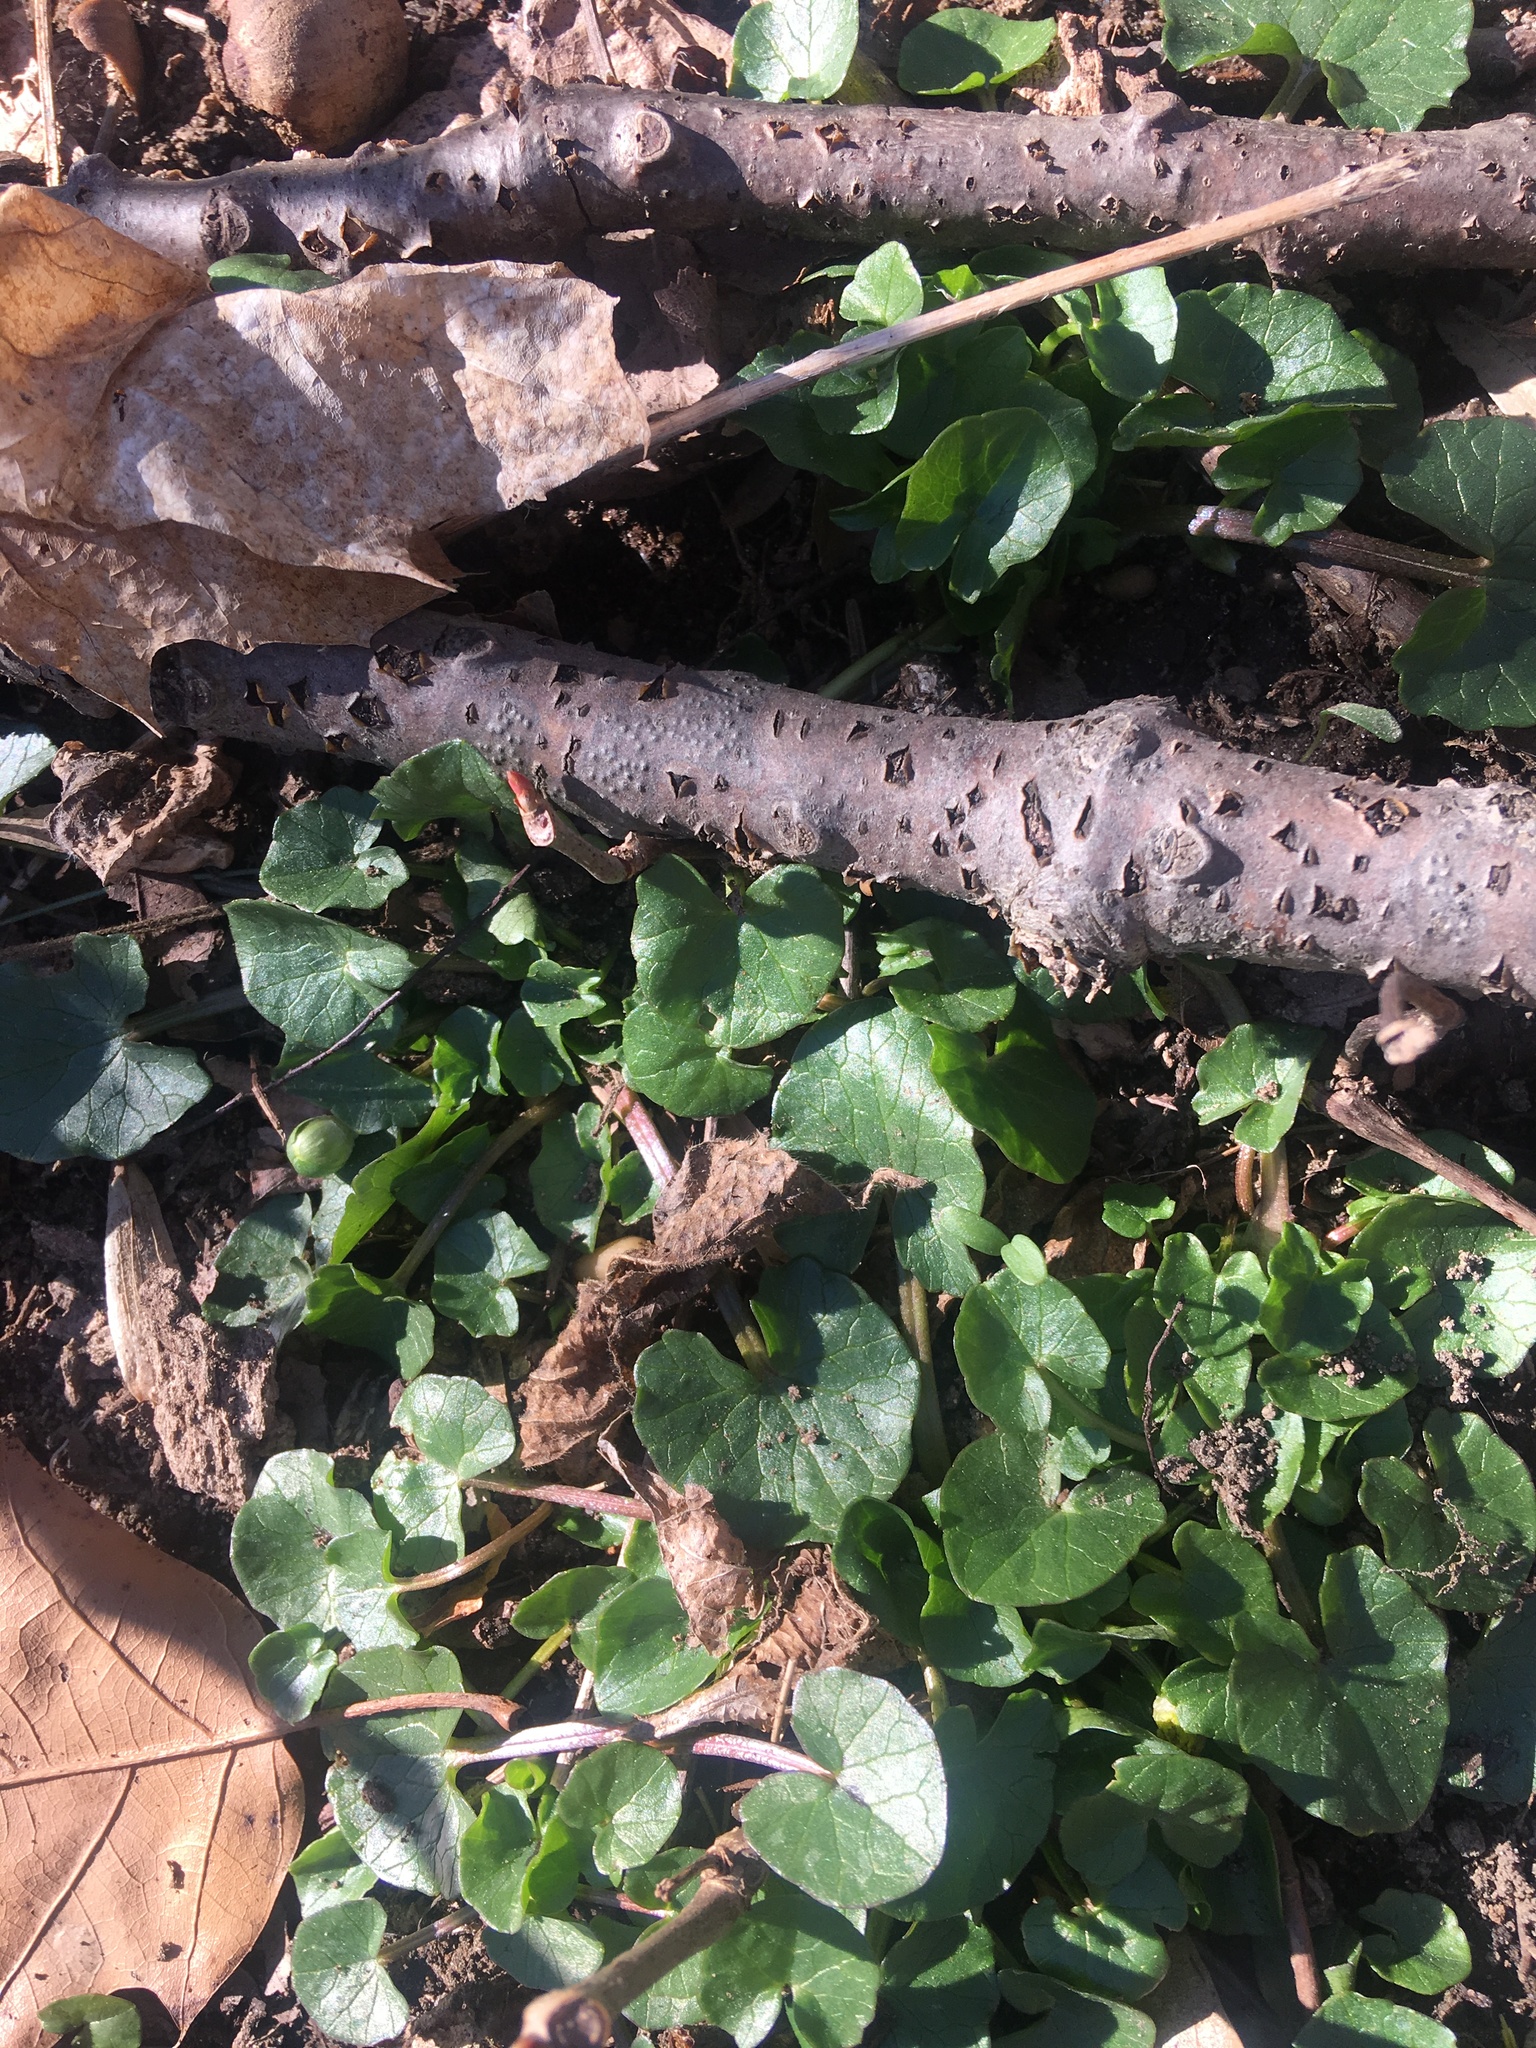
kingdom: Plantae
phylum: Tracheophyta
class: Magnoliopsida
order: Ranunculales
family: Ranunculaceae
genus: Ficaria
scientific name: Ficaria verna
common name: Lesser celandine
